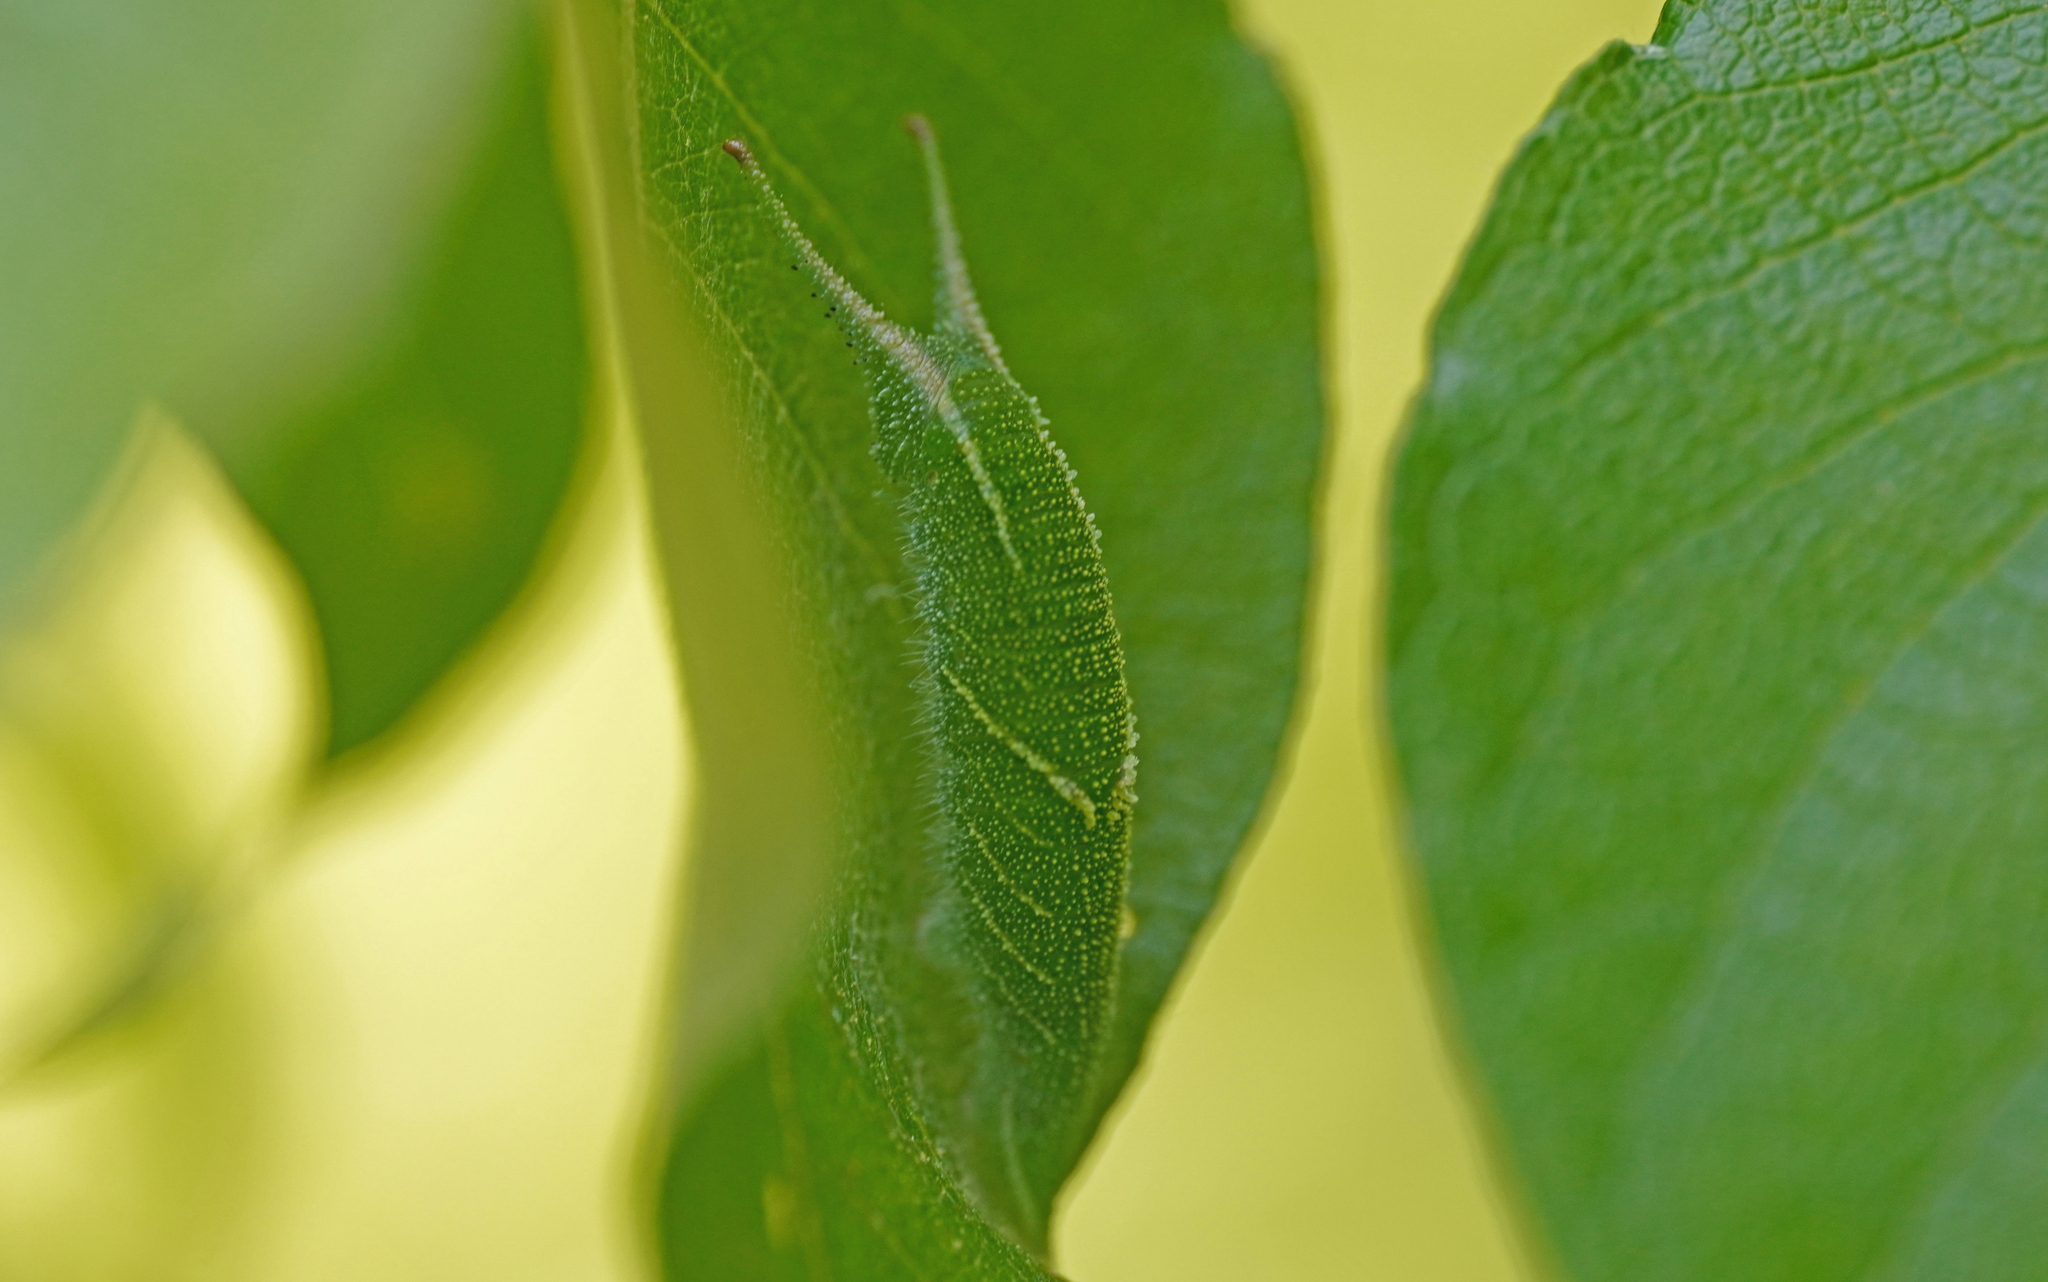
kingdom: Animalia
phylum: Arthropoda
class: Insecta
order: Lepidoptera
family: Nymphalidae
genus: Apatura
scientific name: Apatura iris
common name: Purple emperor
